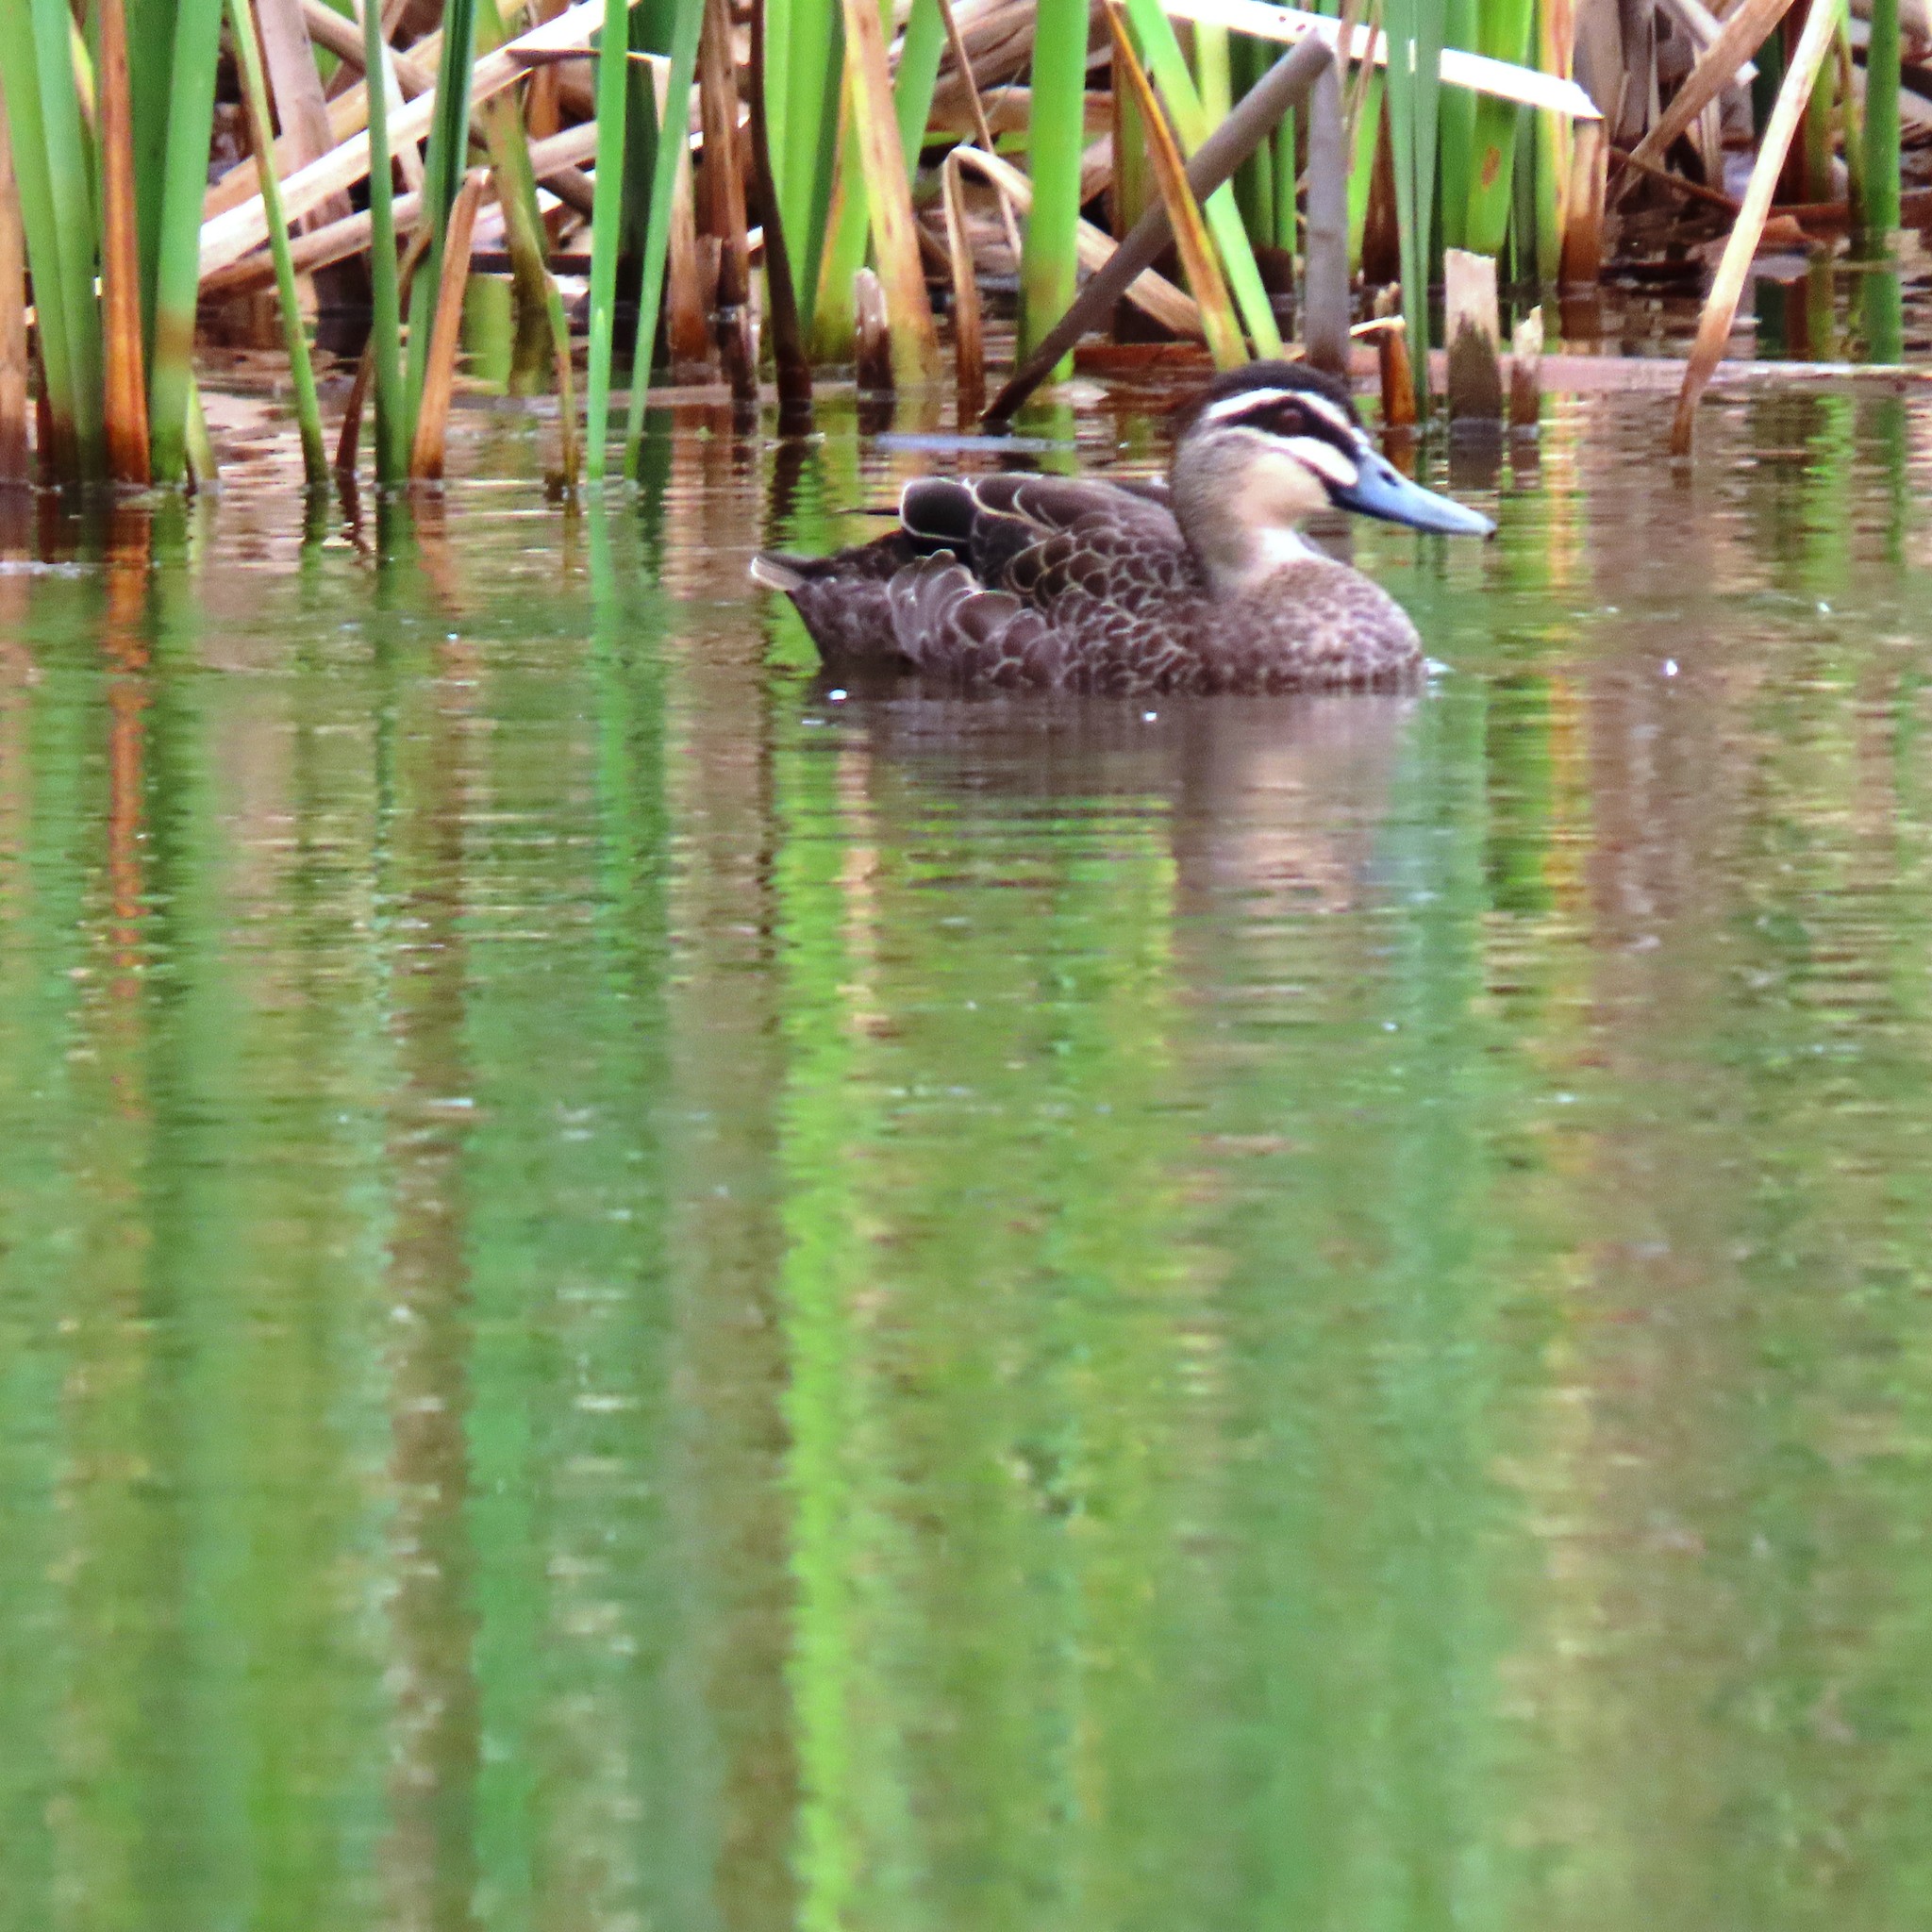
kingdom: Animalia
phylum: Chordata
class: Aves
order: Anseriformes
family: Anatidae
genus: Anas
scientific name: Anas superciliosa
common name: Pacific black duck
